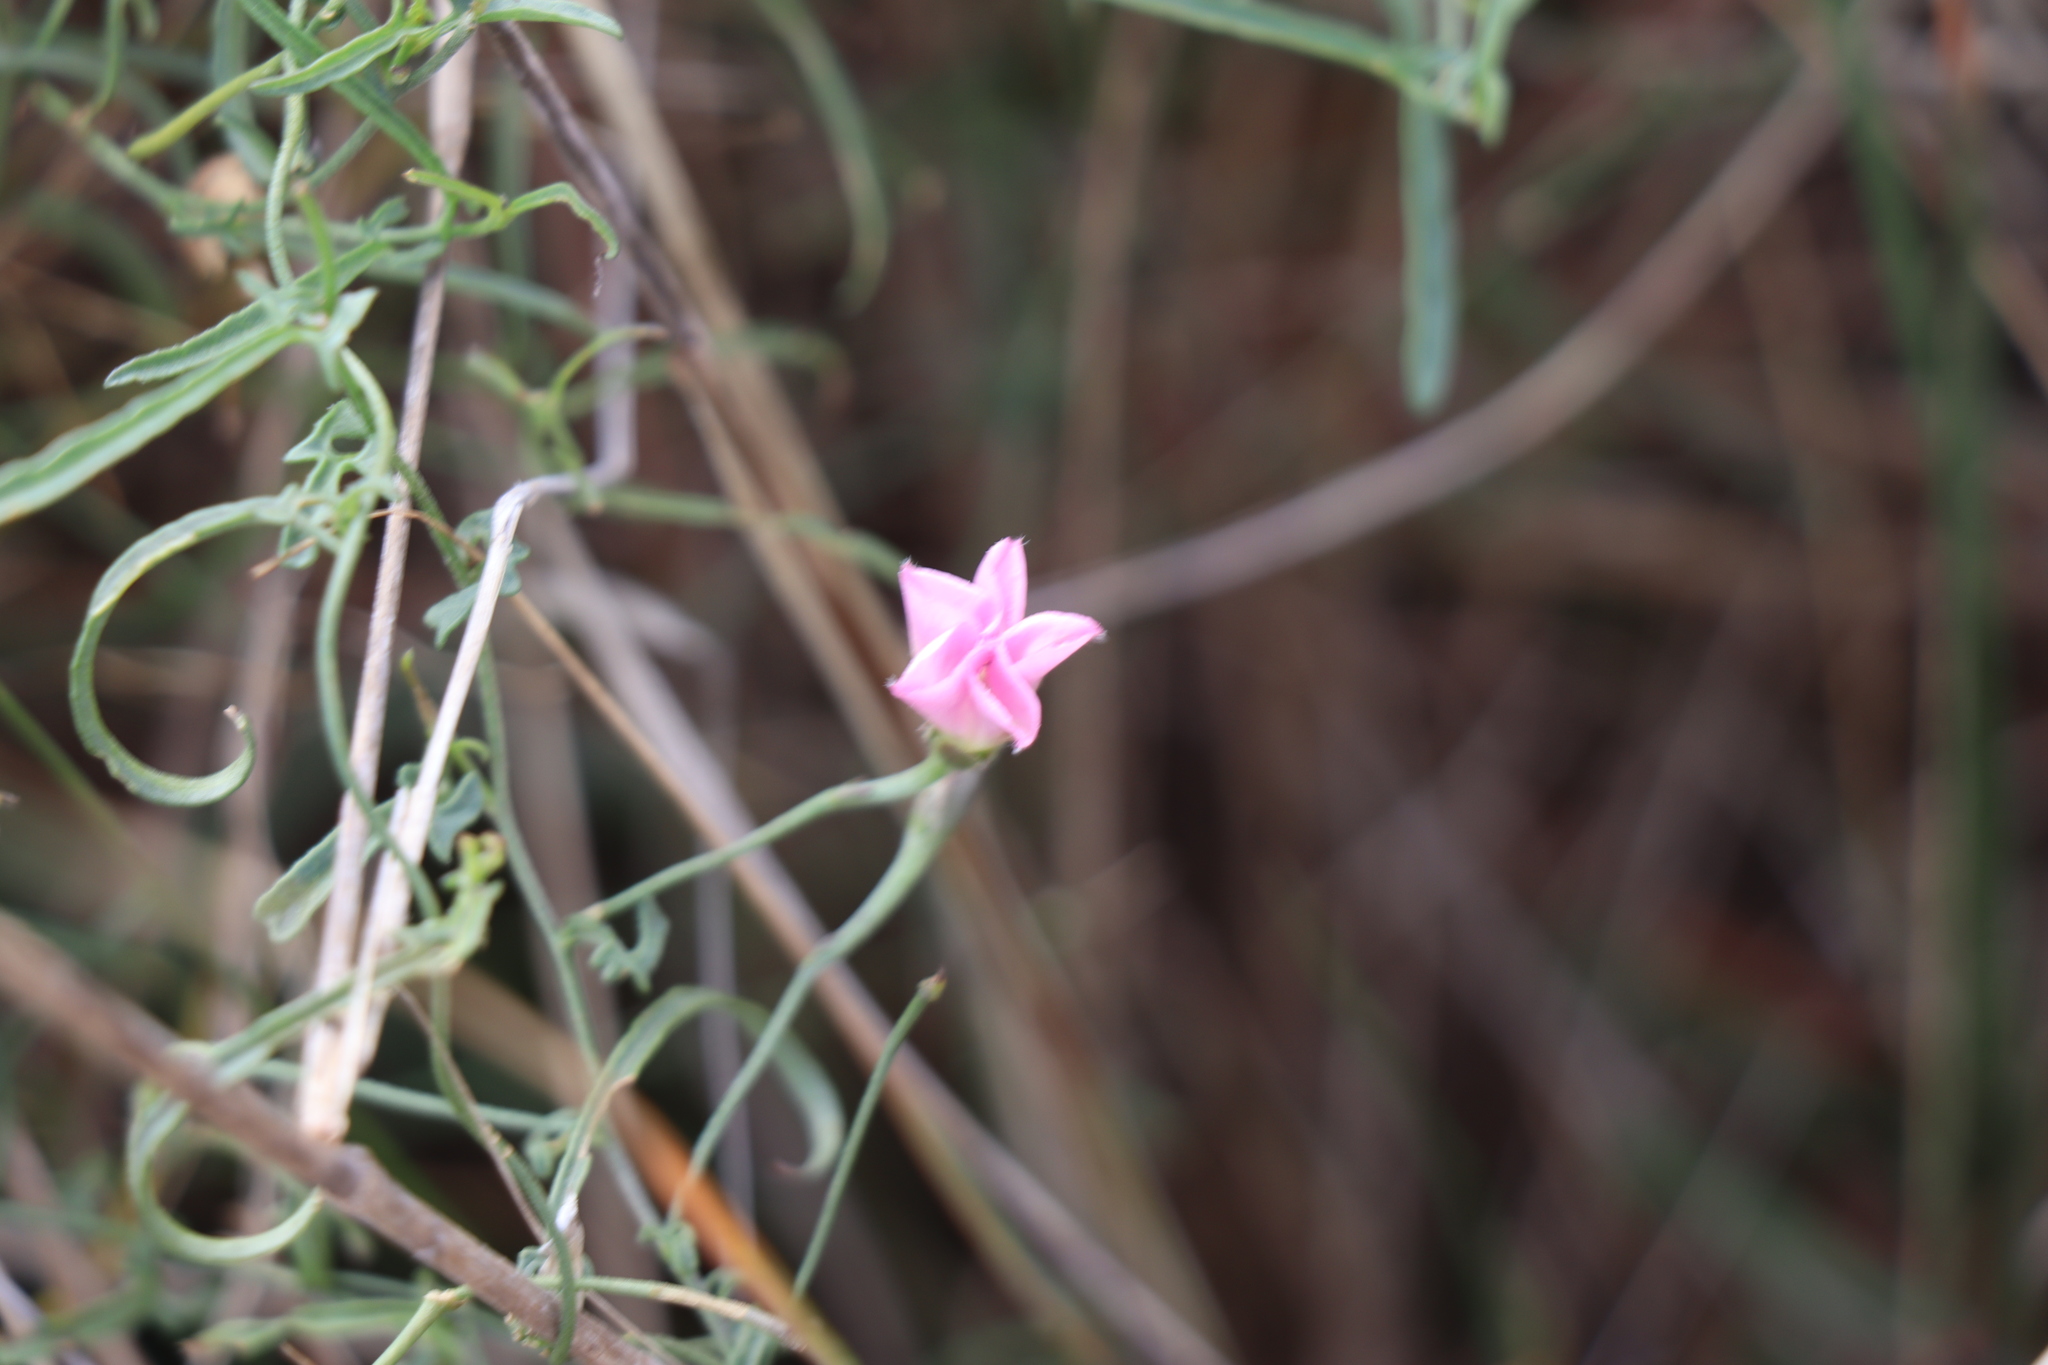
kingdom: Plantae
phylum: Tracheophyta
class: Magnoliopsida
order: Solanales
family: Convolvulaceae
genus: Convolvulus
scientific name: Convolvulus angustissimus
